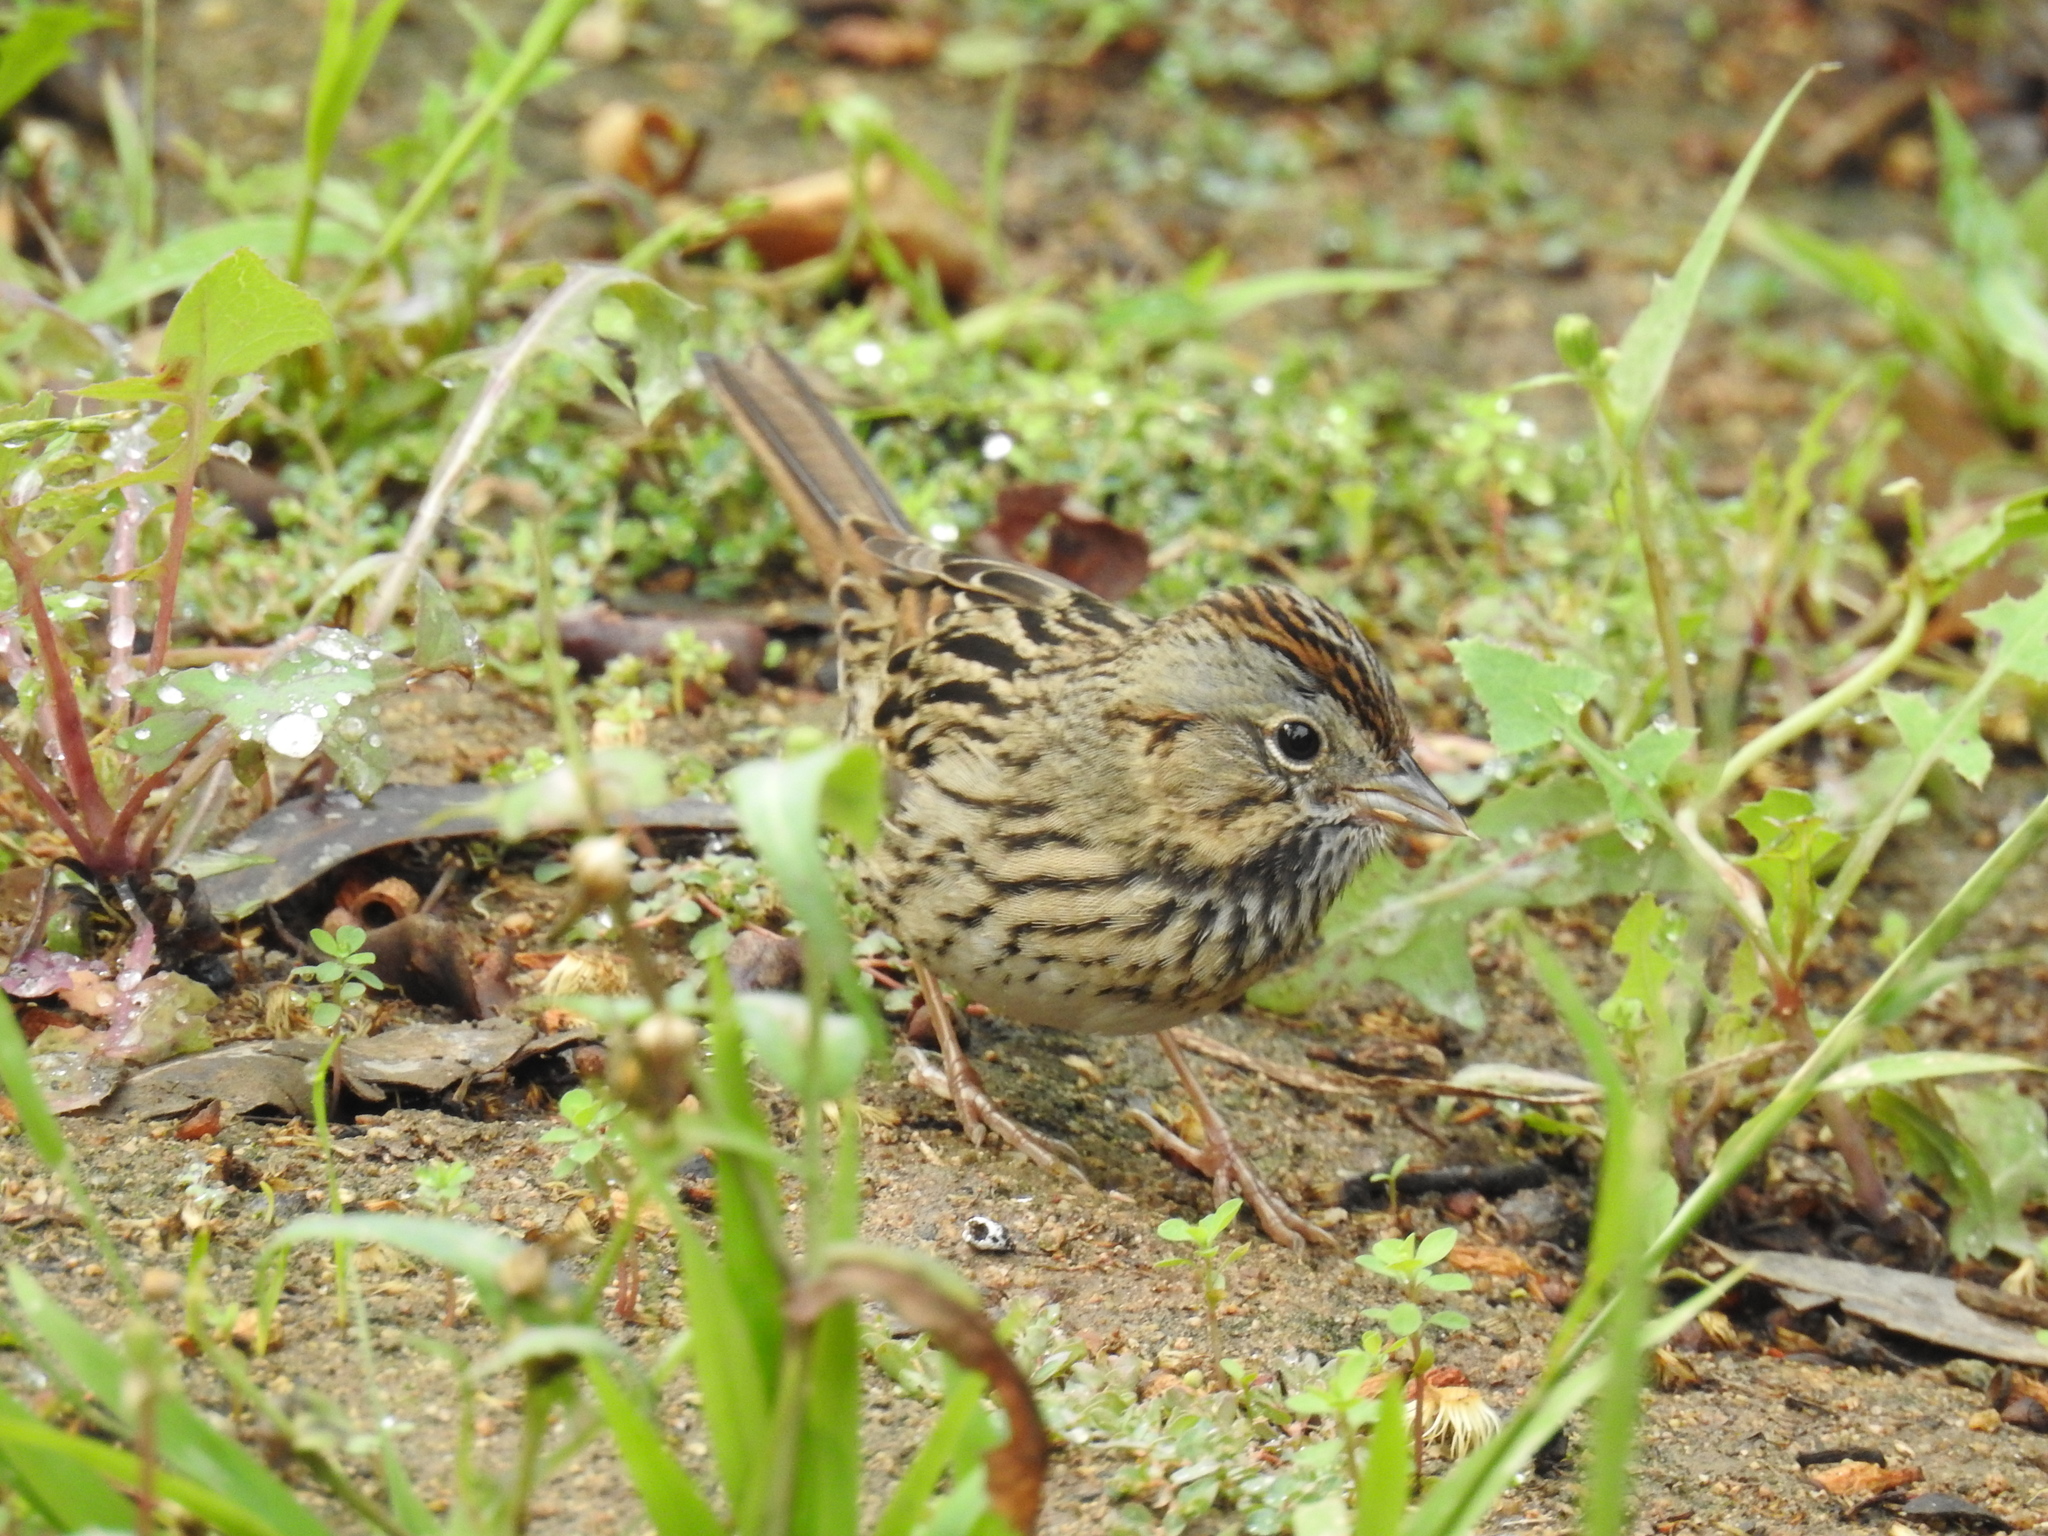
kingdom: Animalia
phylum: Chordata
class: Aves
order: Passeriformes
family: Passerellidae
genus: Melospiza
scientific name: Melospiza lincolnii
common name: Lincoln's sparrow
